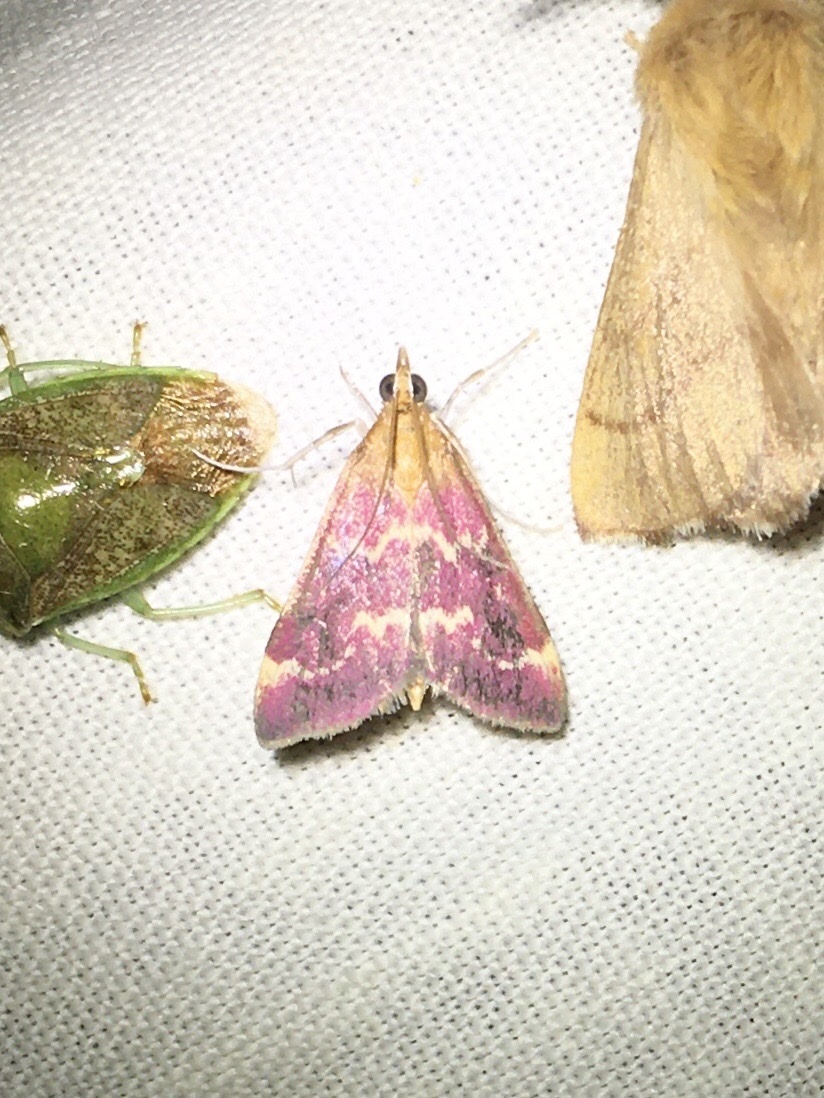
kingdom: Animalia
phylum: Arthropoda
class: Insecta
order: Lepidoptera
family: Crambidae
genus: Pyrausta
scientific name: Pyrausta signatalis
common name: Raspberry pyrausta moth
